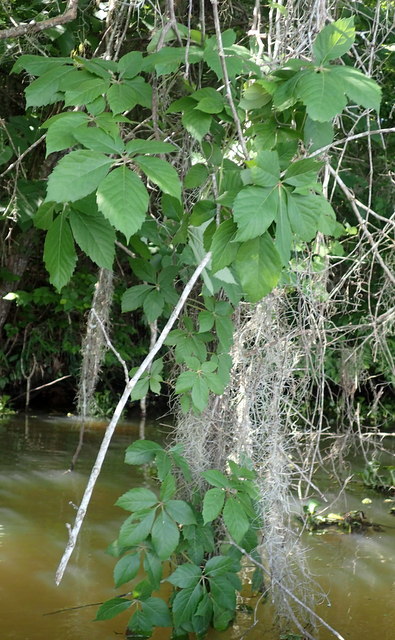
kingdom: Plantae
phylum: Tracheophyta
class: Magnoliopsida
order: Vitales
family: Vitaceae
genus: Parthenocissus
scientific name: Parthenocissus quinquefolia
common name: Virginia-creeper
